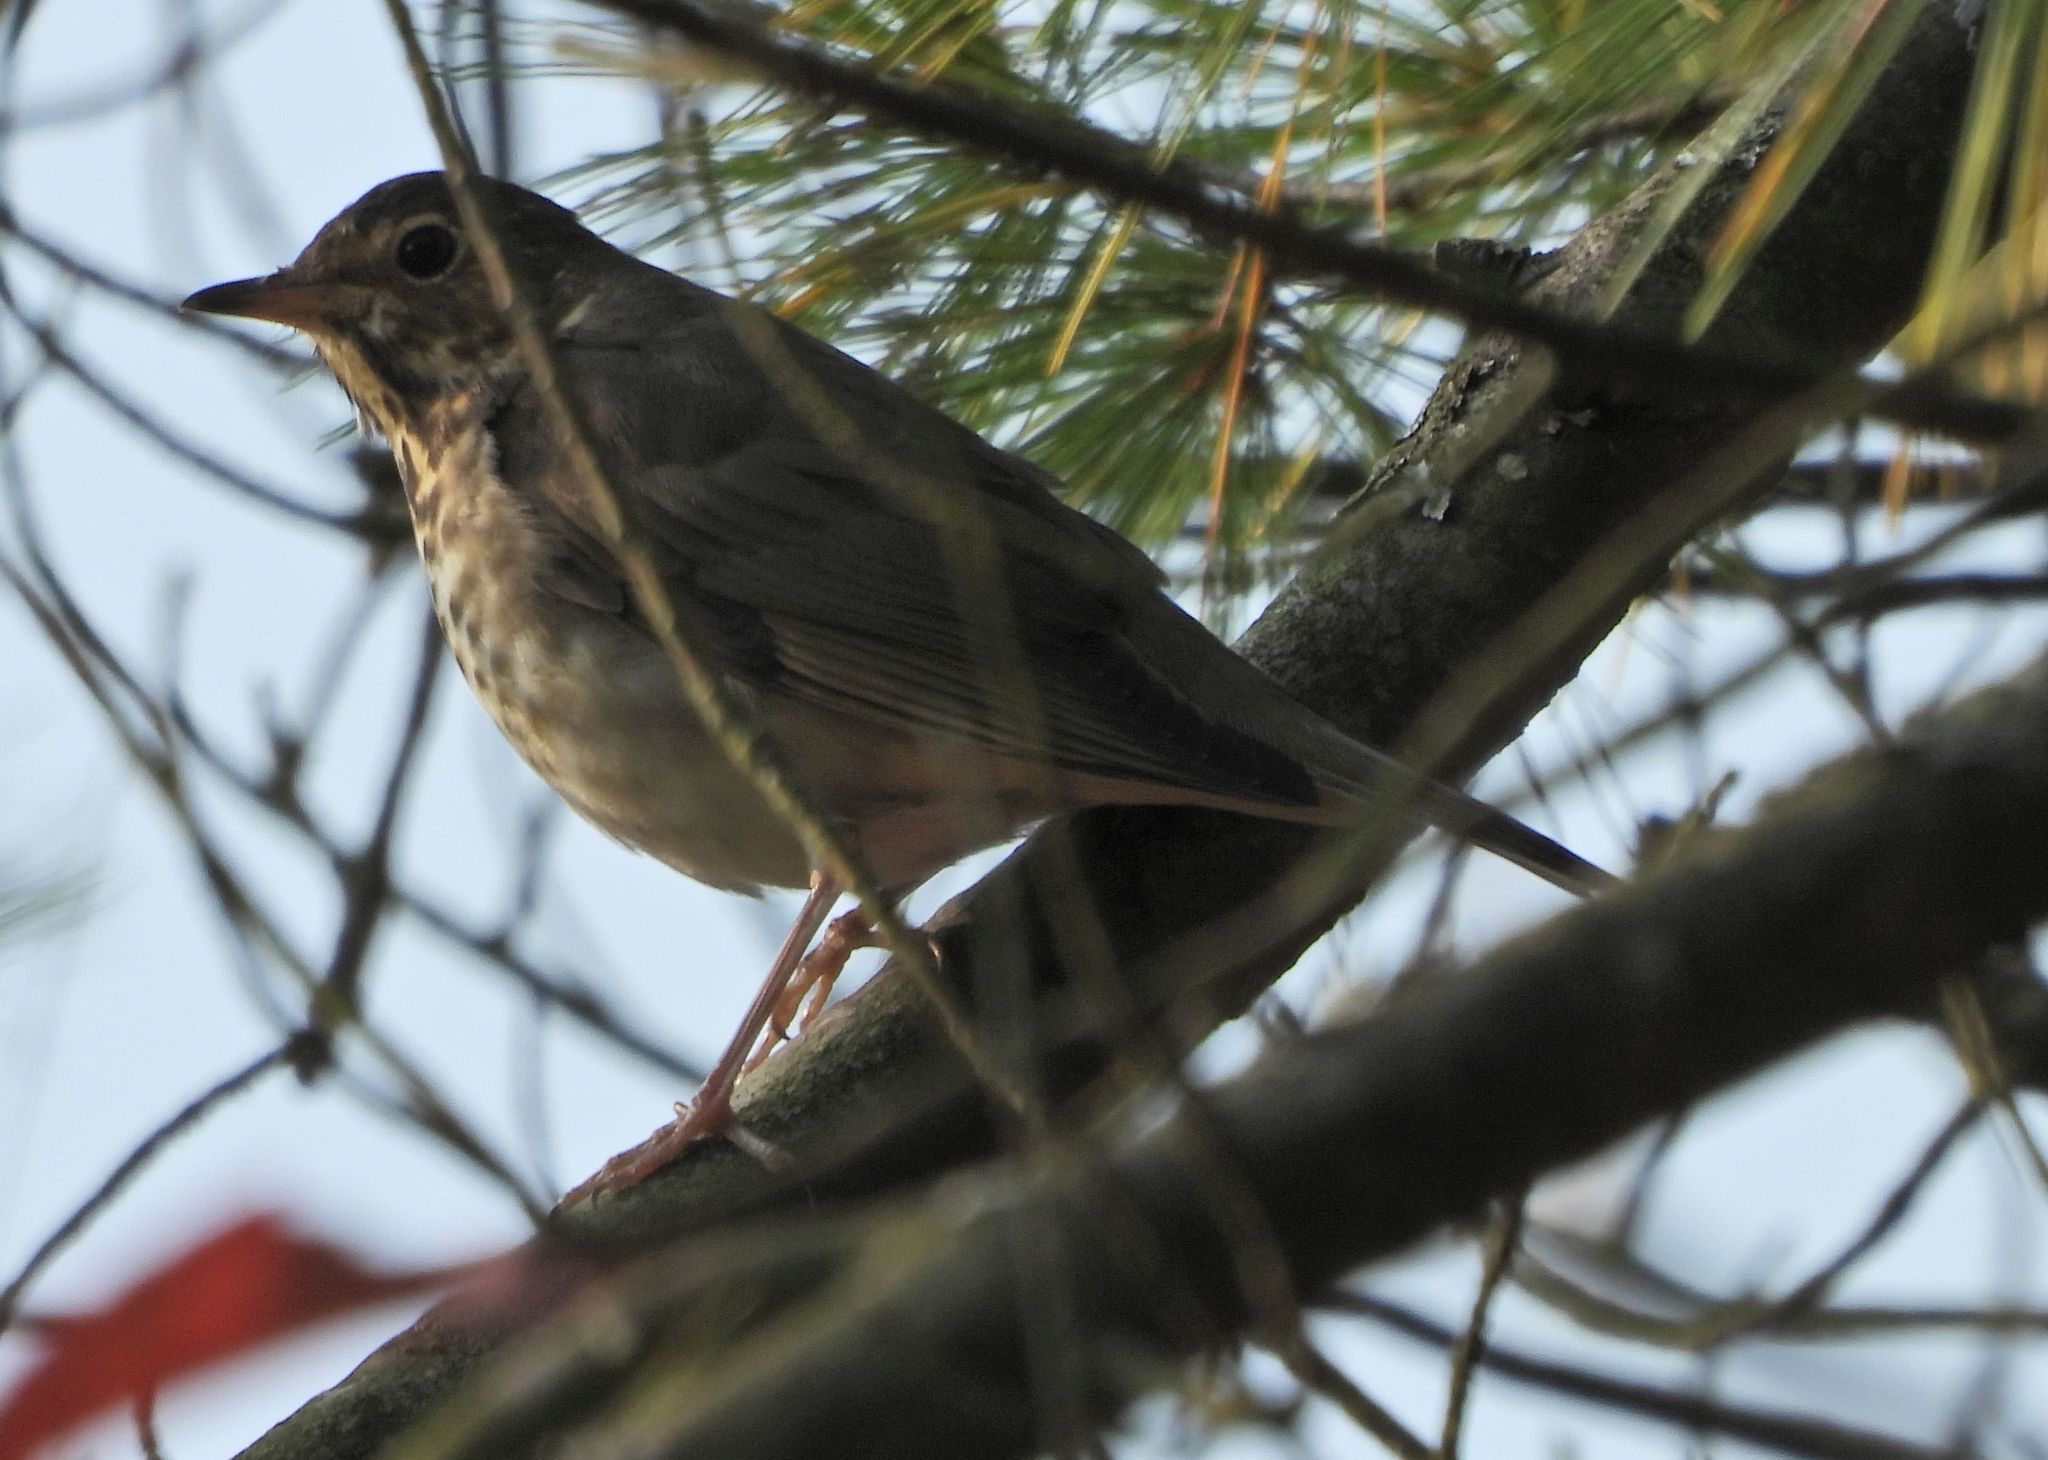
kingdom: Animalia
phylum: Chordata
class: Aves
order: Passeriformes
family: Turdidae
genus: Catharus
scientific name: Catharus ustulatus
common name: Swainson's thrush
